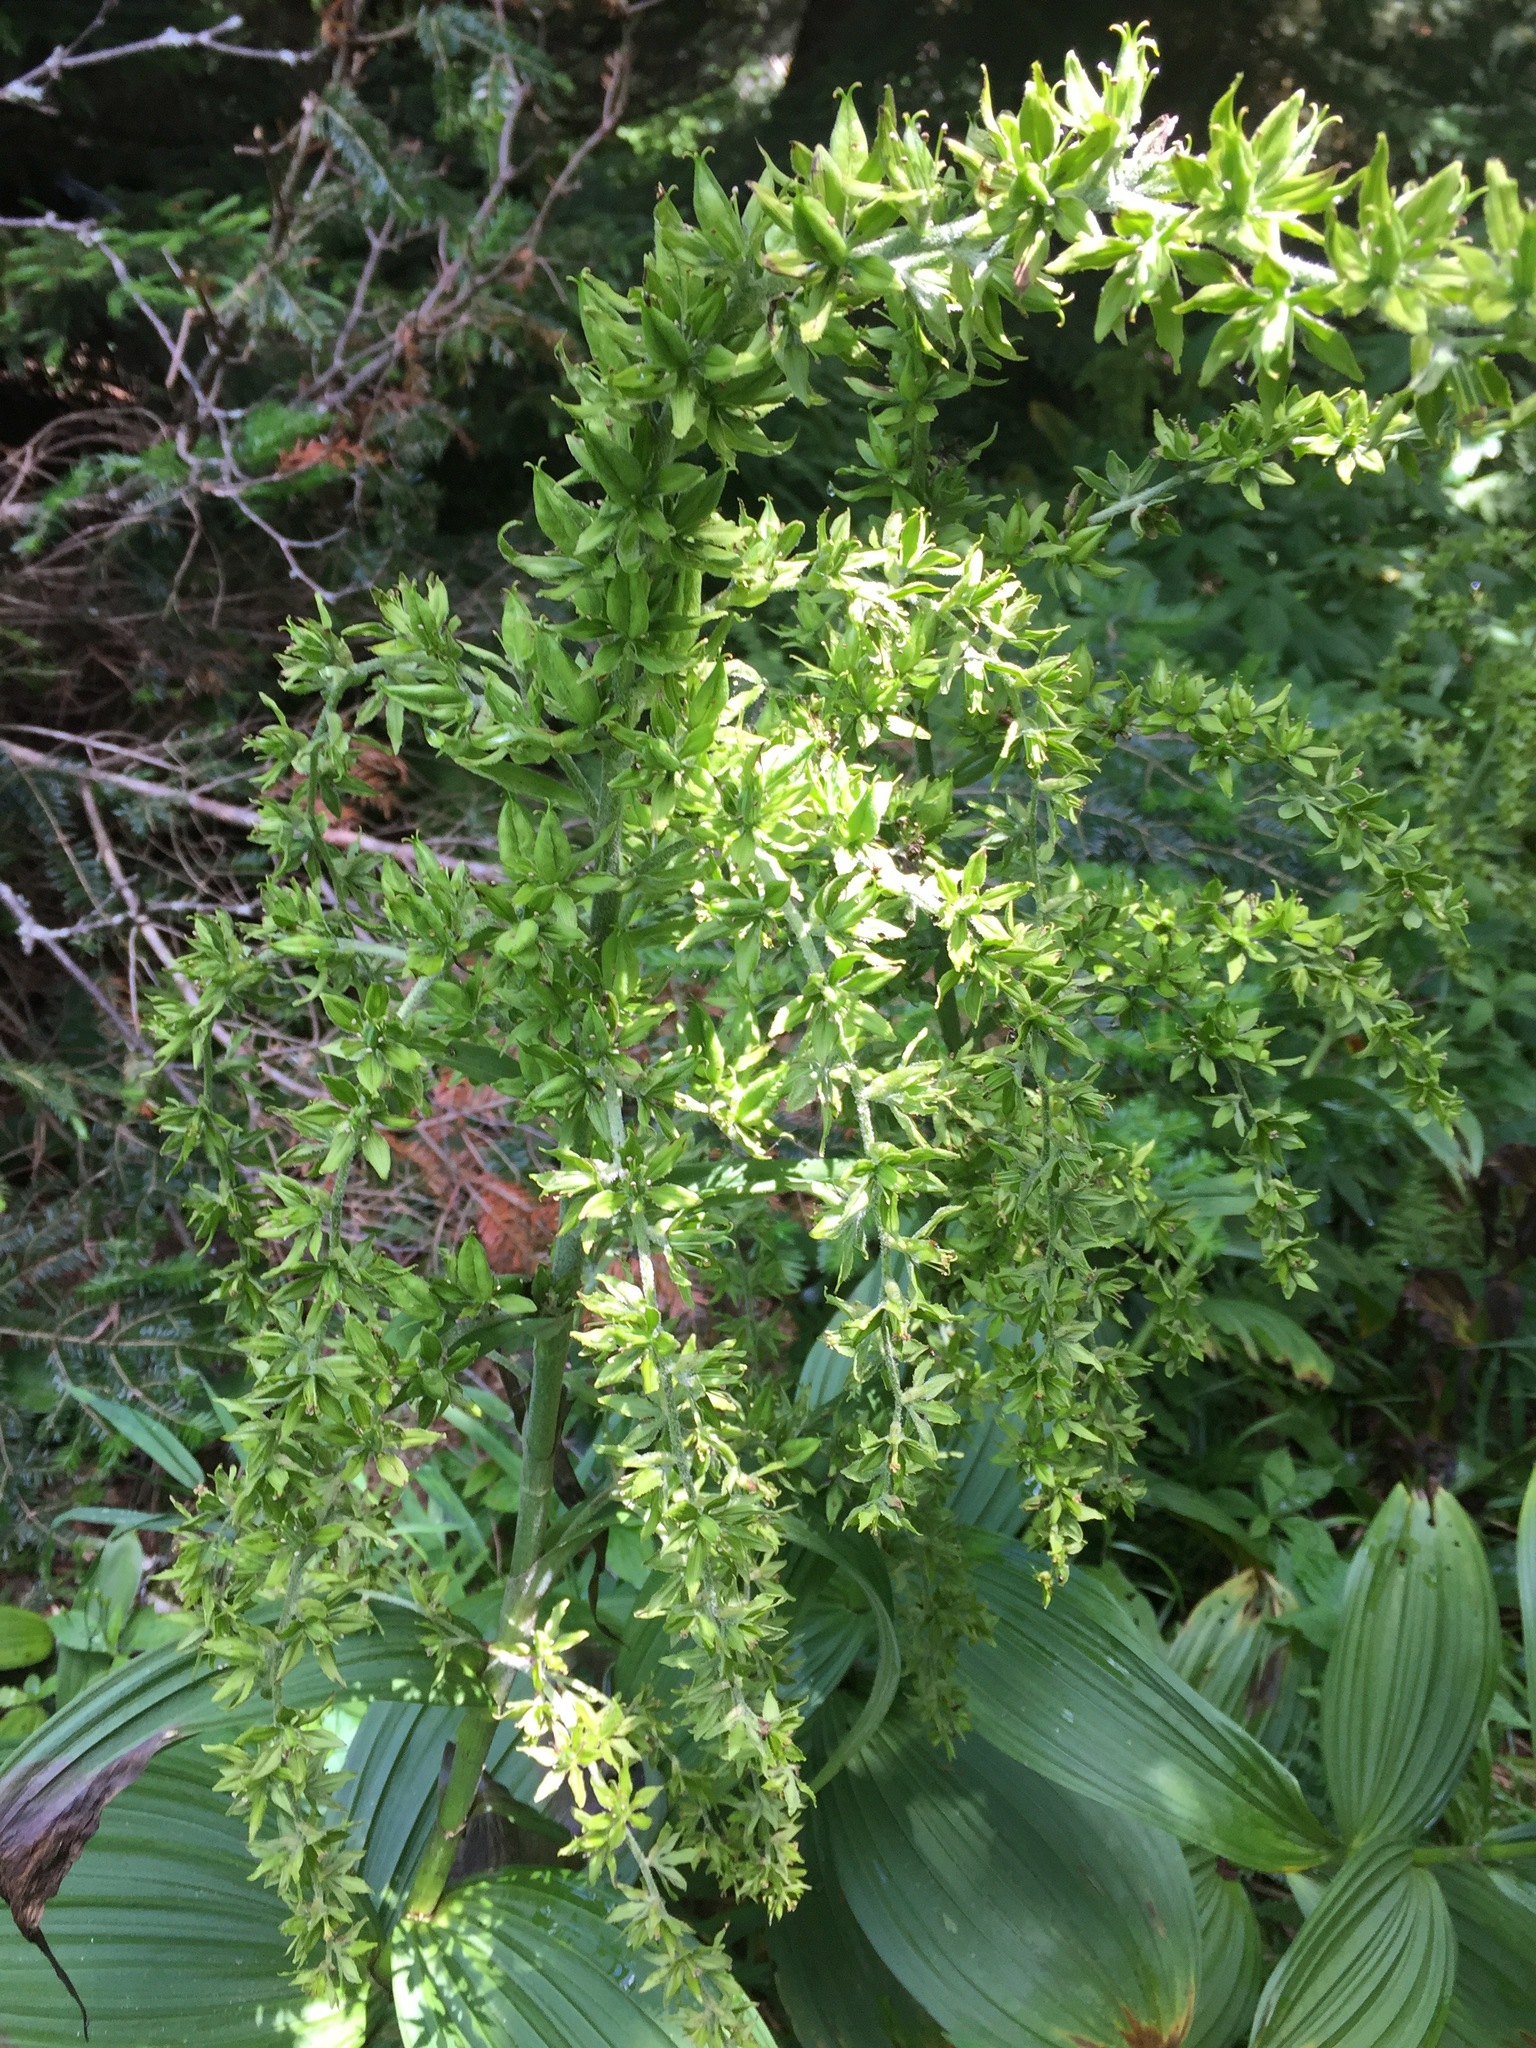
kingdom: Plantae
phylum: Tracheophyta
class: Liliopsida
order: Liliales
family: Melanthiaceae
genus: Veratrum
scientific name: Veratrum viride
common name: American false hellebore
